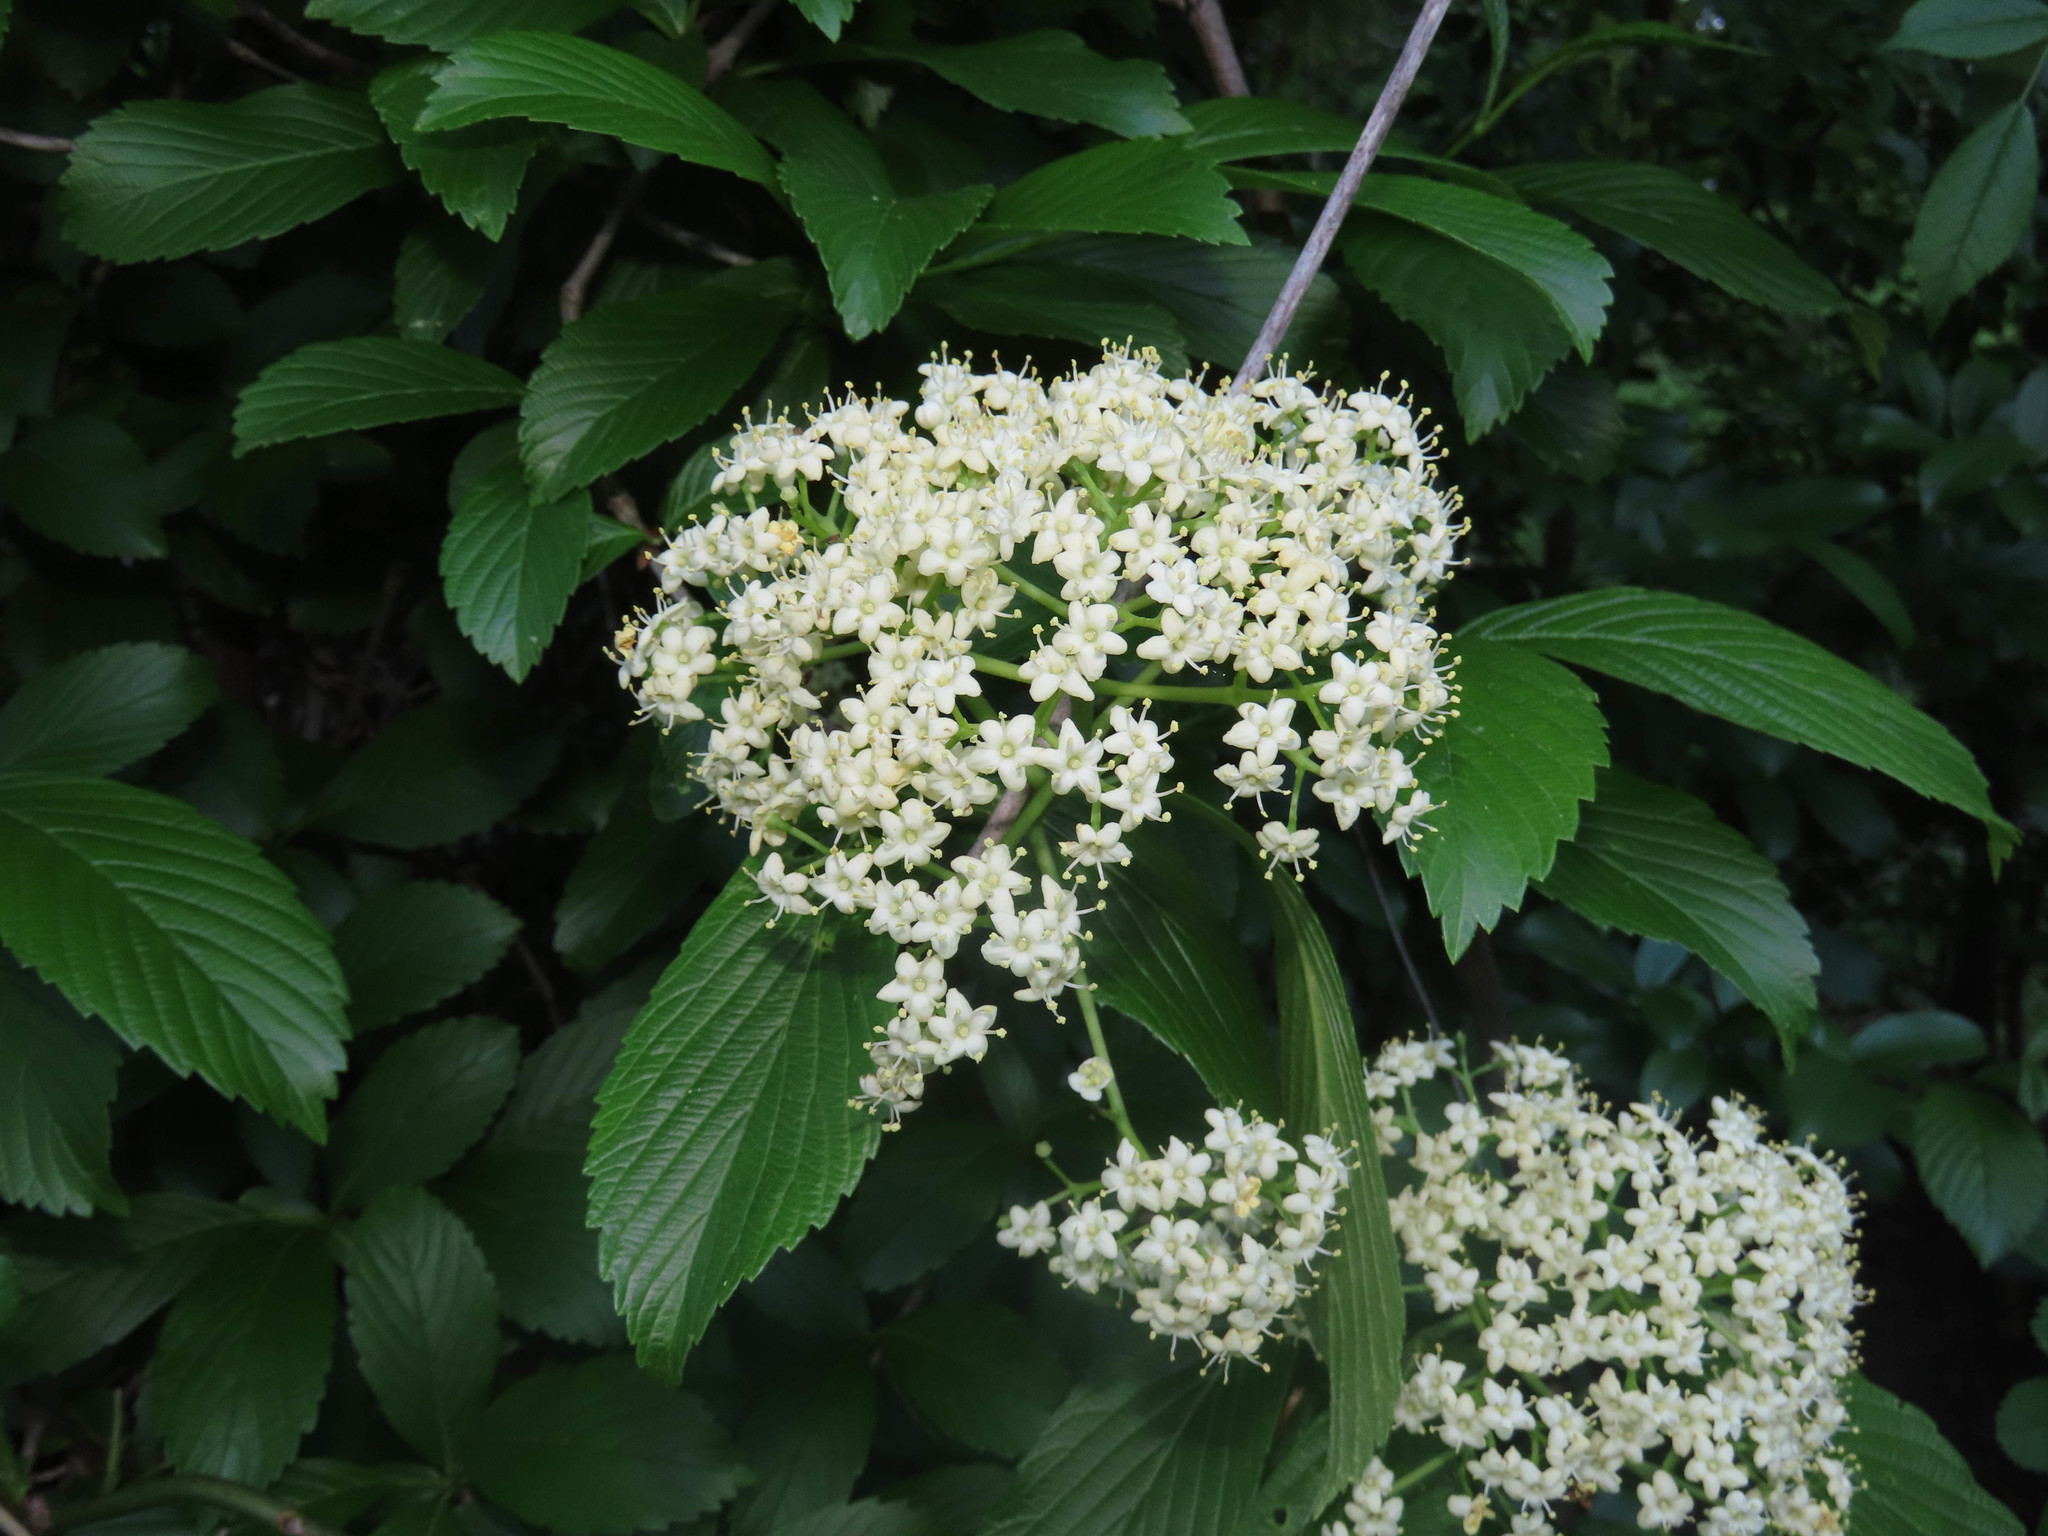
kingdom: Plantae
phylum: Tracheophyta
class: Magnoliopsida
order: Dipsacales
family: Viburnaceae
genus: Viburnum
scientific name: Viburnum sieboldii
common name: Siebold's arrowwood
